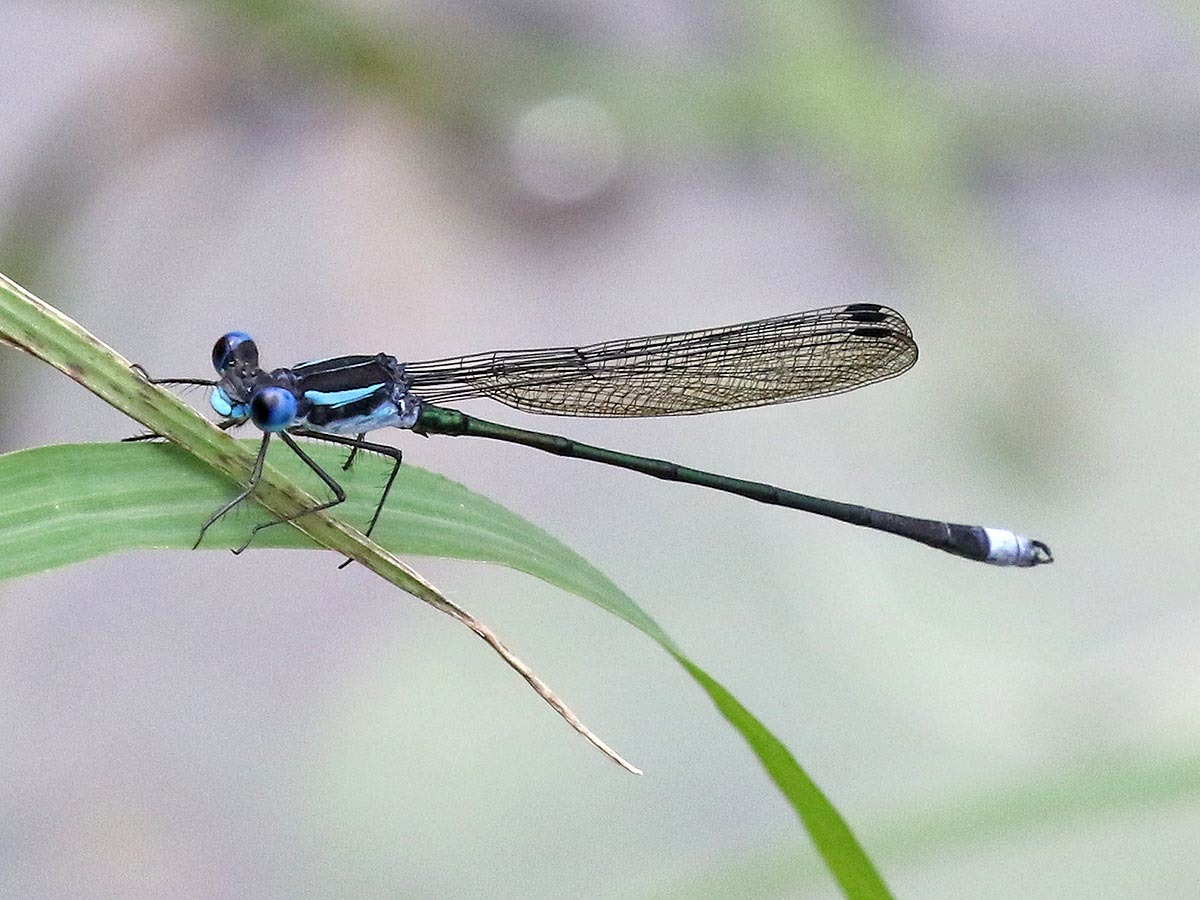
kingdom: Animalia
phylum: Arthropoda
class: Insecta
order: Odonata
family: Lestidae
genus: Lestes
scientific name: Lestes henshawi
